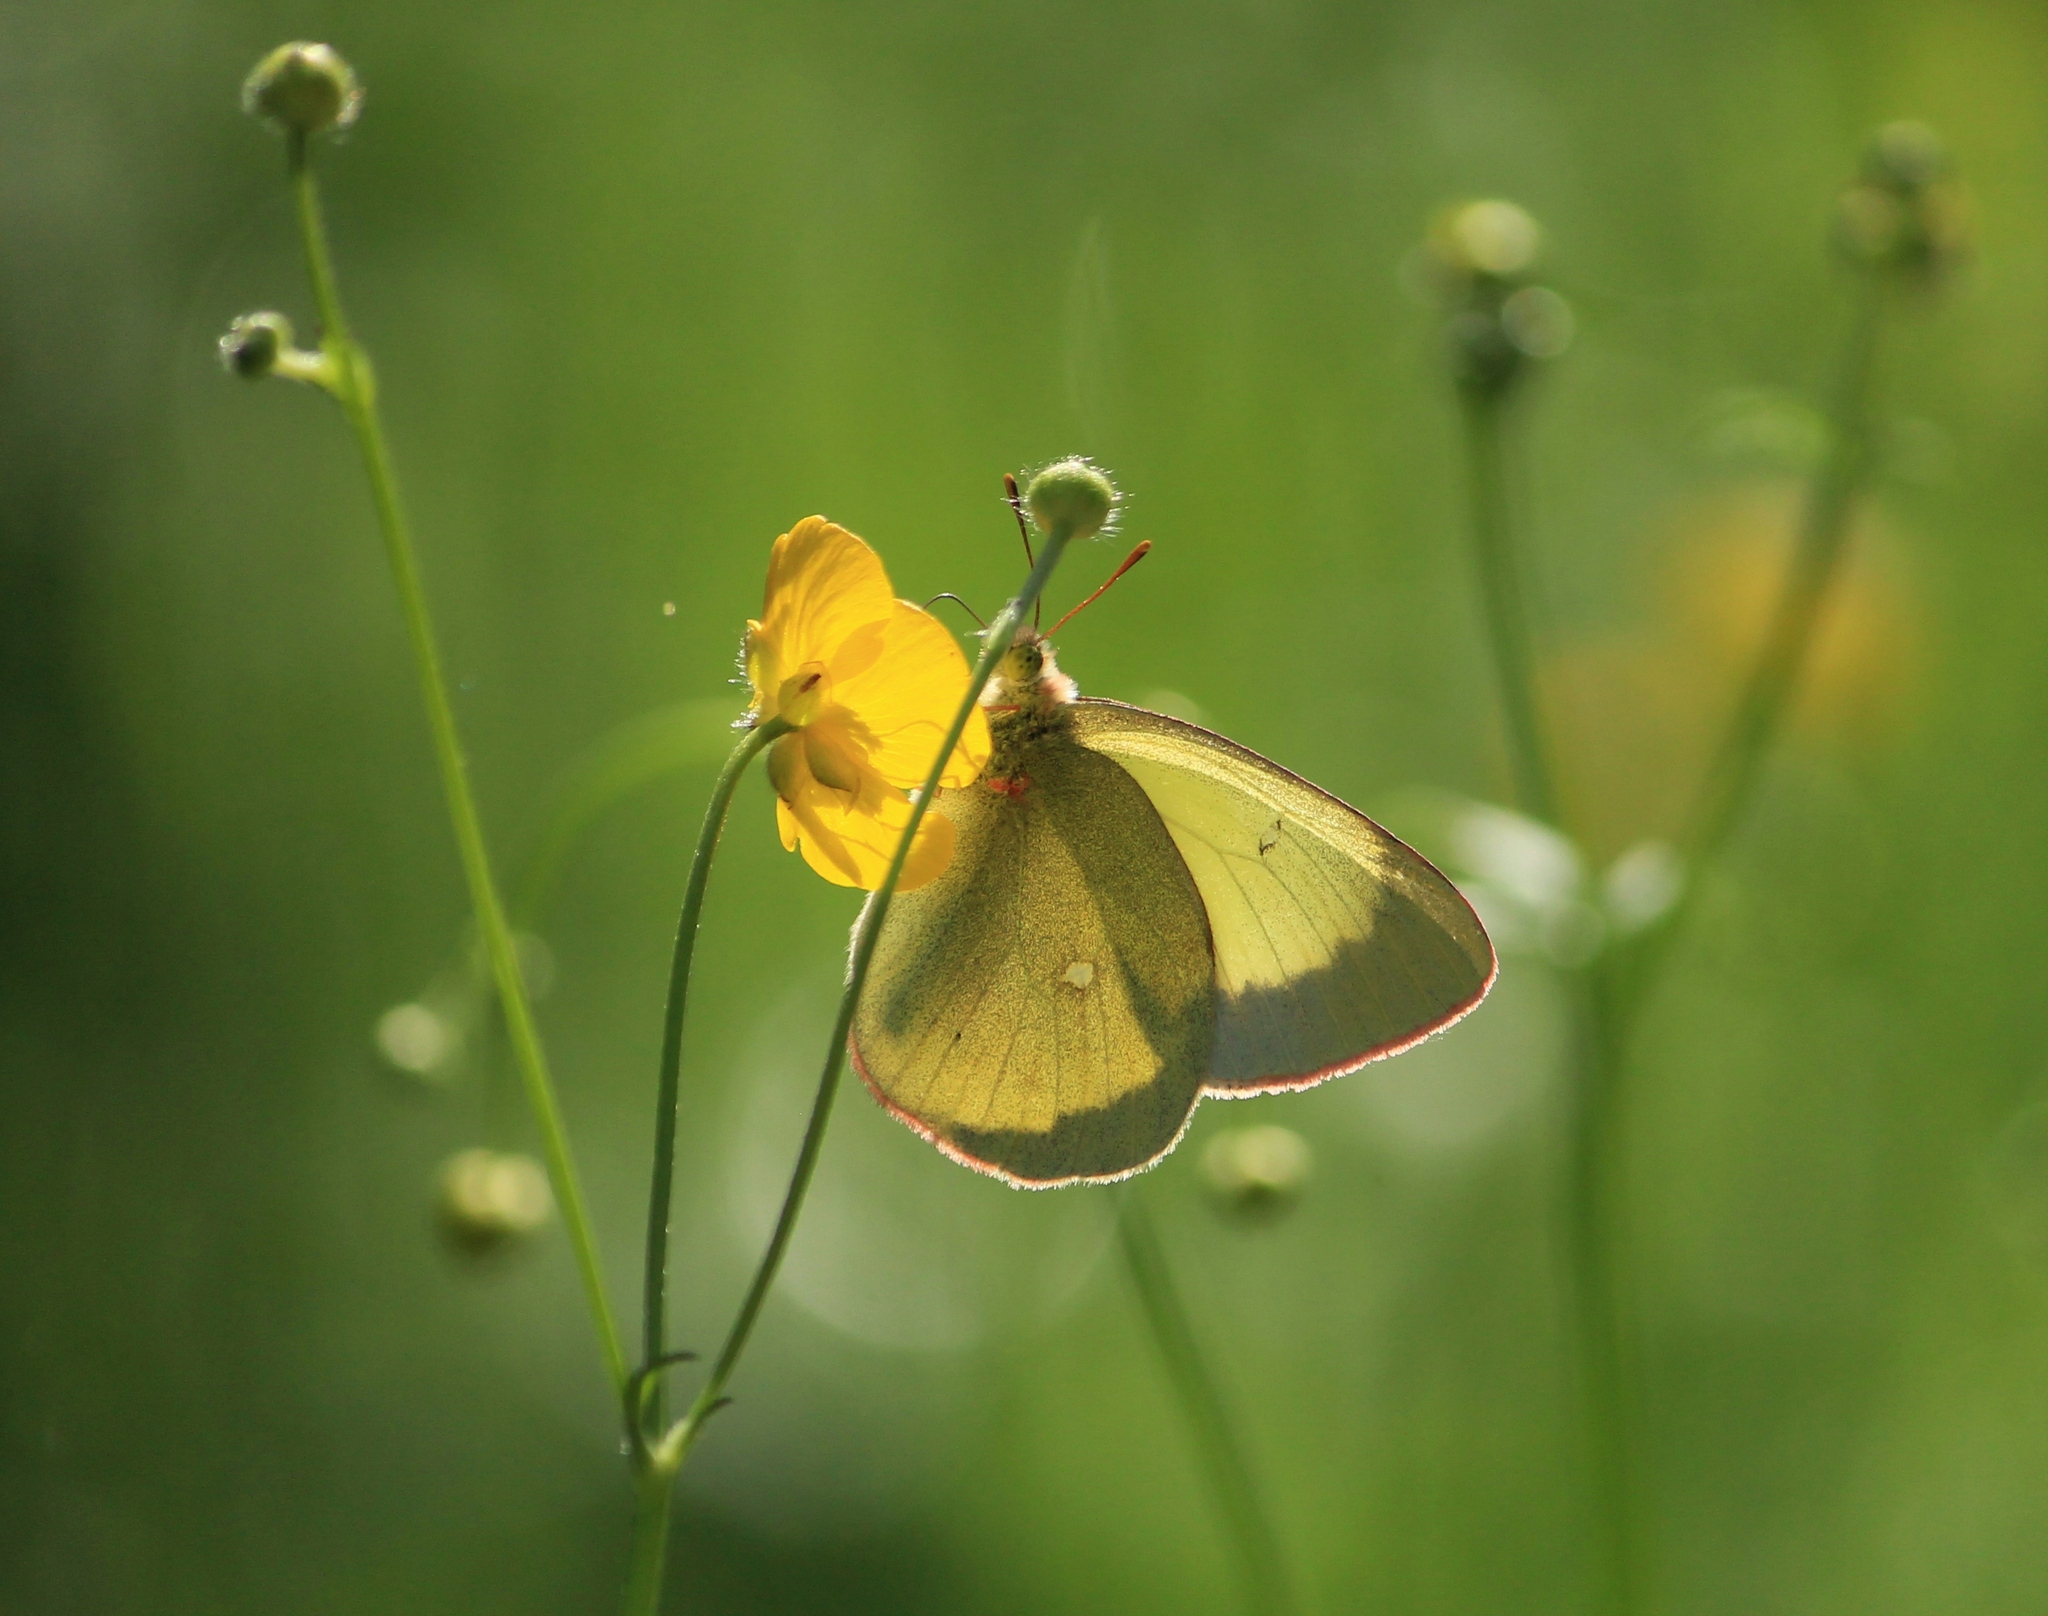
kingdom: Animalia
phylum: Arthropoda
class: Insecta
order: Lepidoptera
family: Pieridae
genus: Colias
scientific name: Colias palaeno
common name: Moorland clouded yellow
